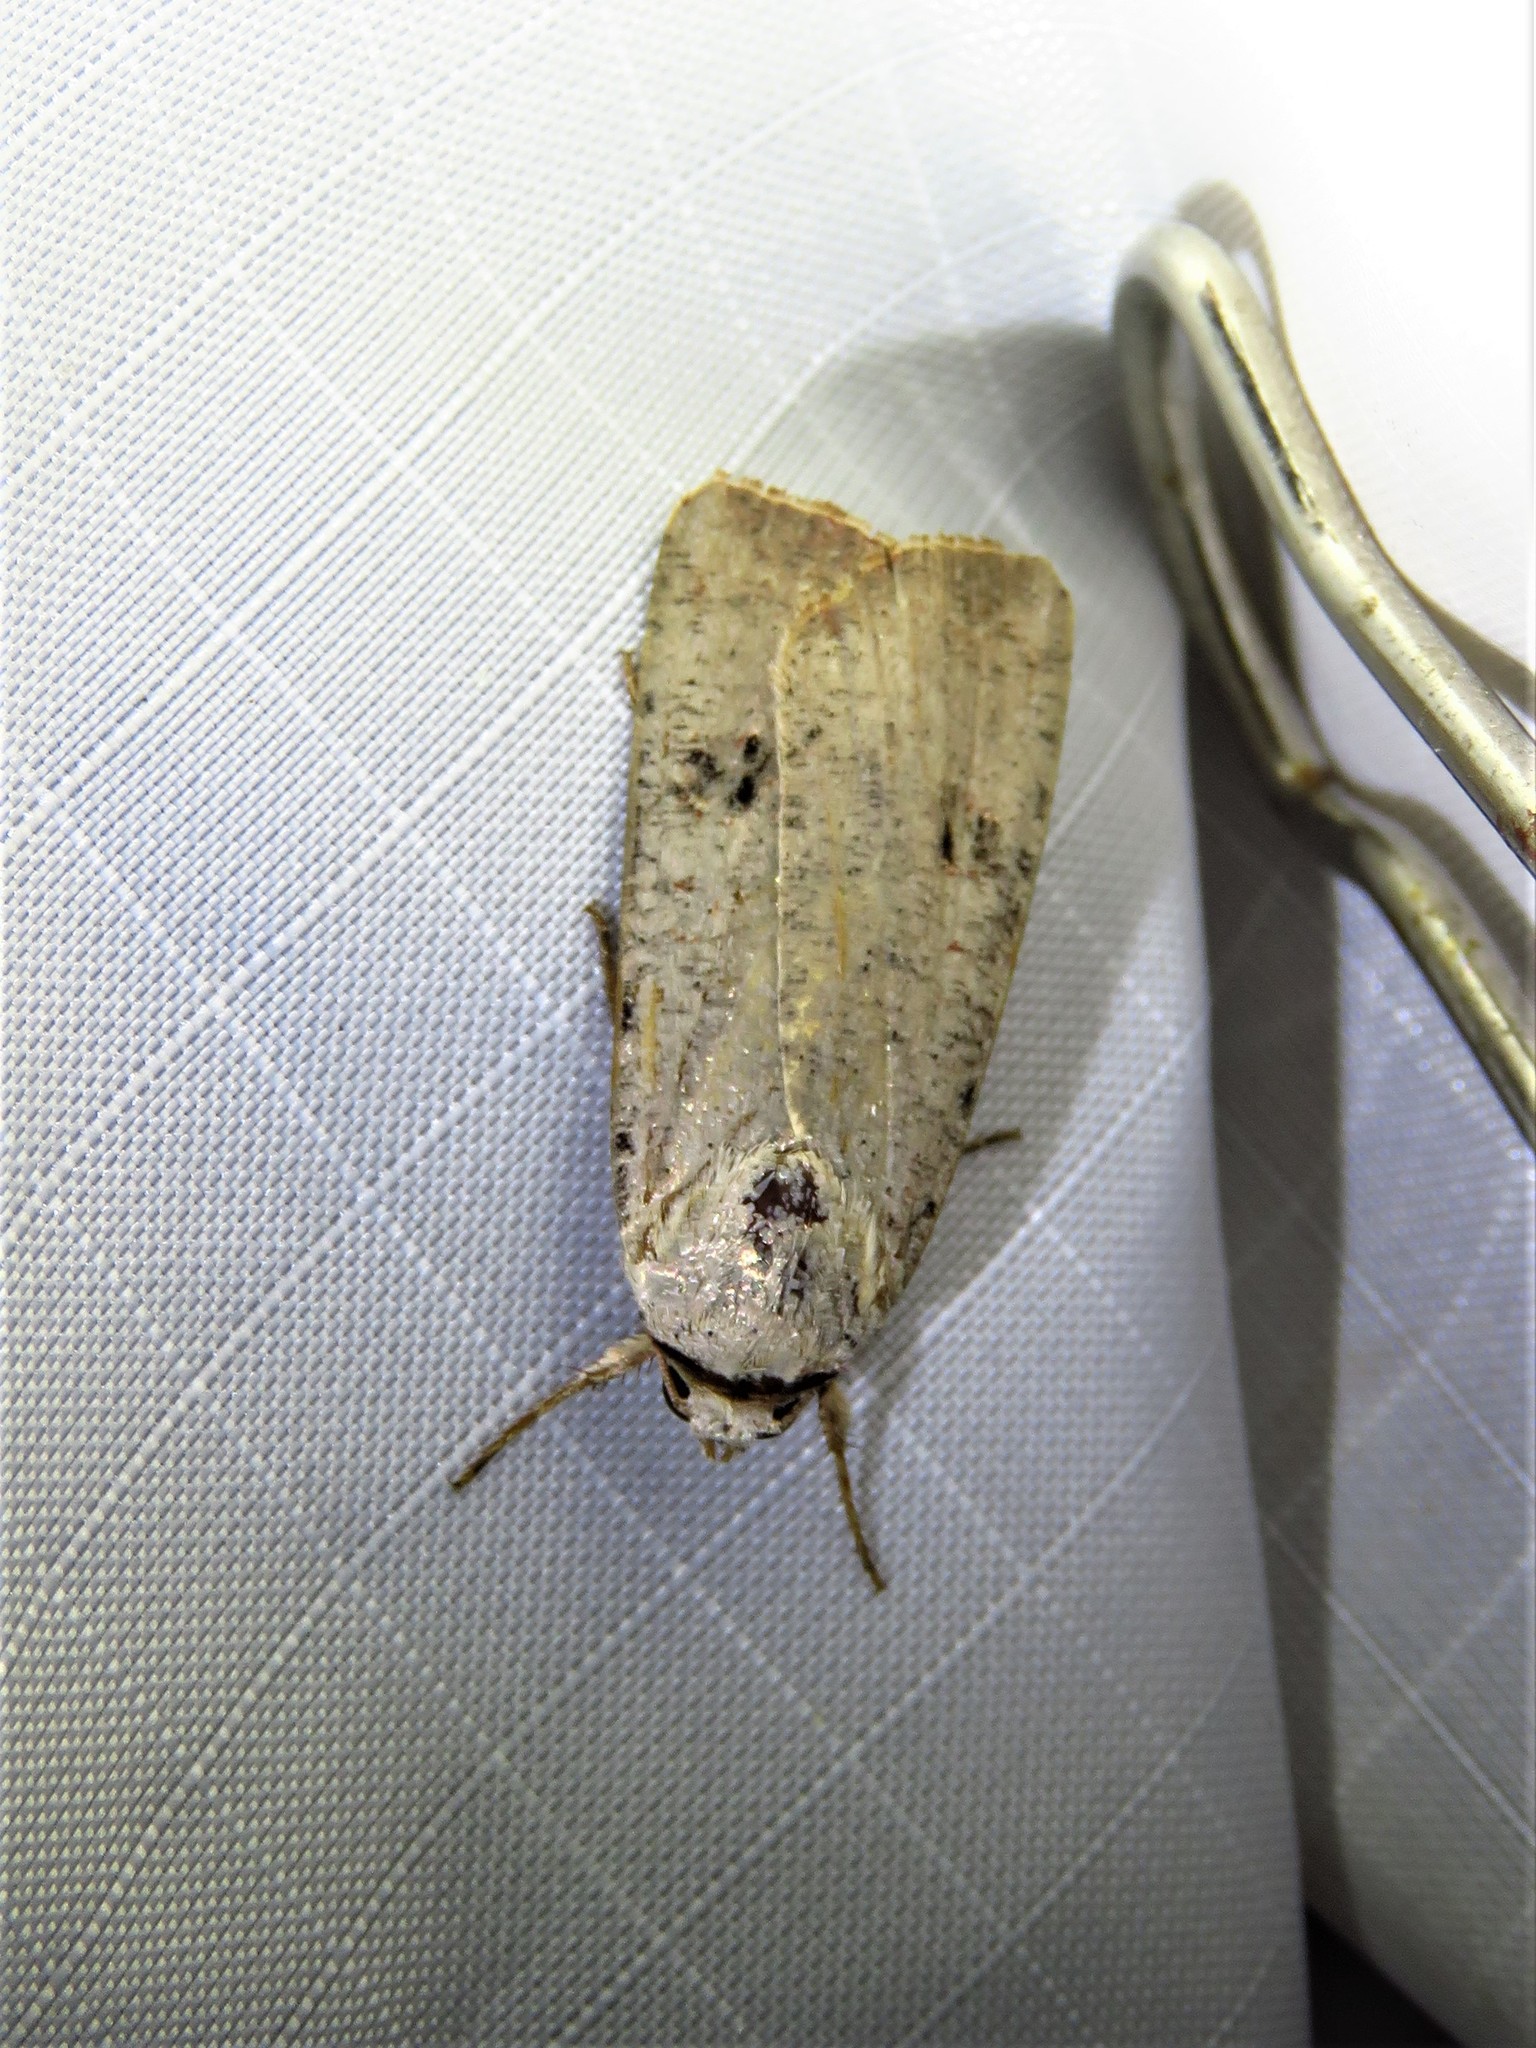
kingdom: Animalia
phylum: Arthropoda
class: Insecta
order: Lepidoptera
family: Noctuidae
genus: Anicla
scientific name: Anicla infecta
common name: Green cutworm
